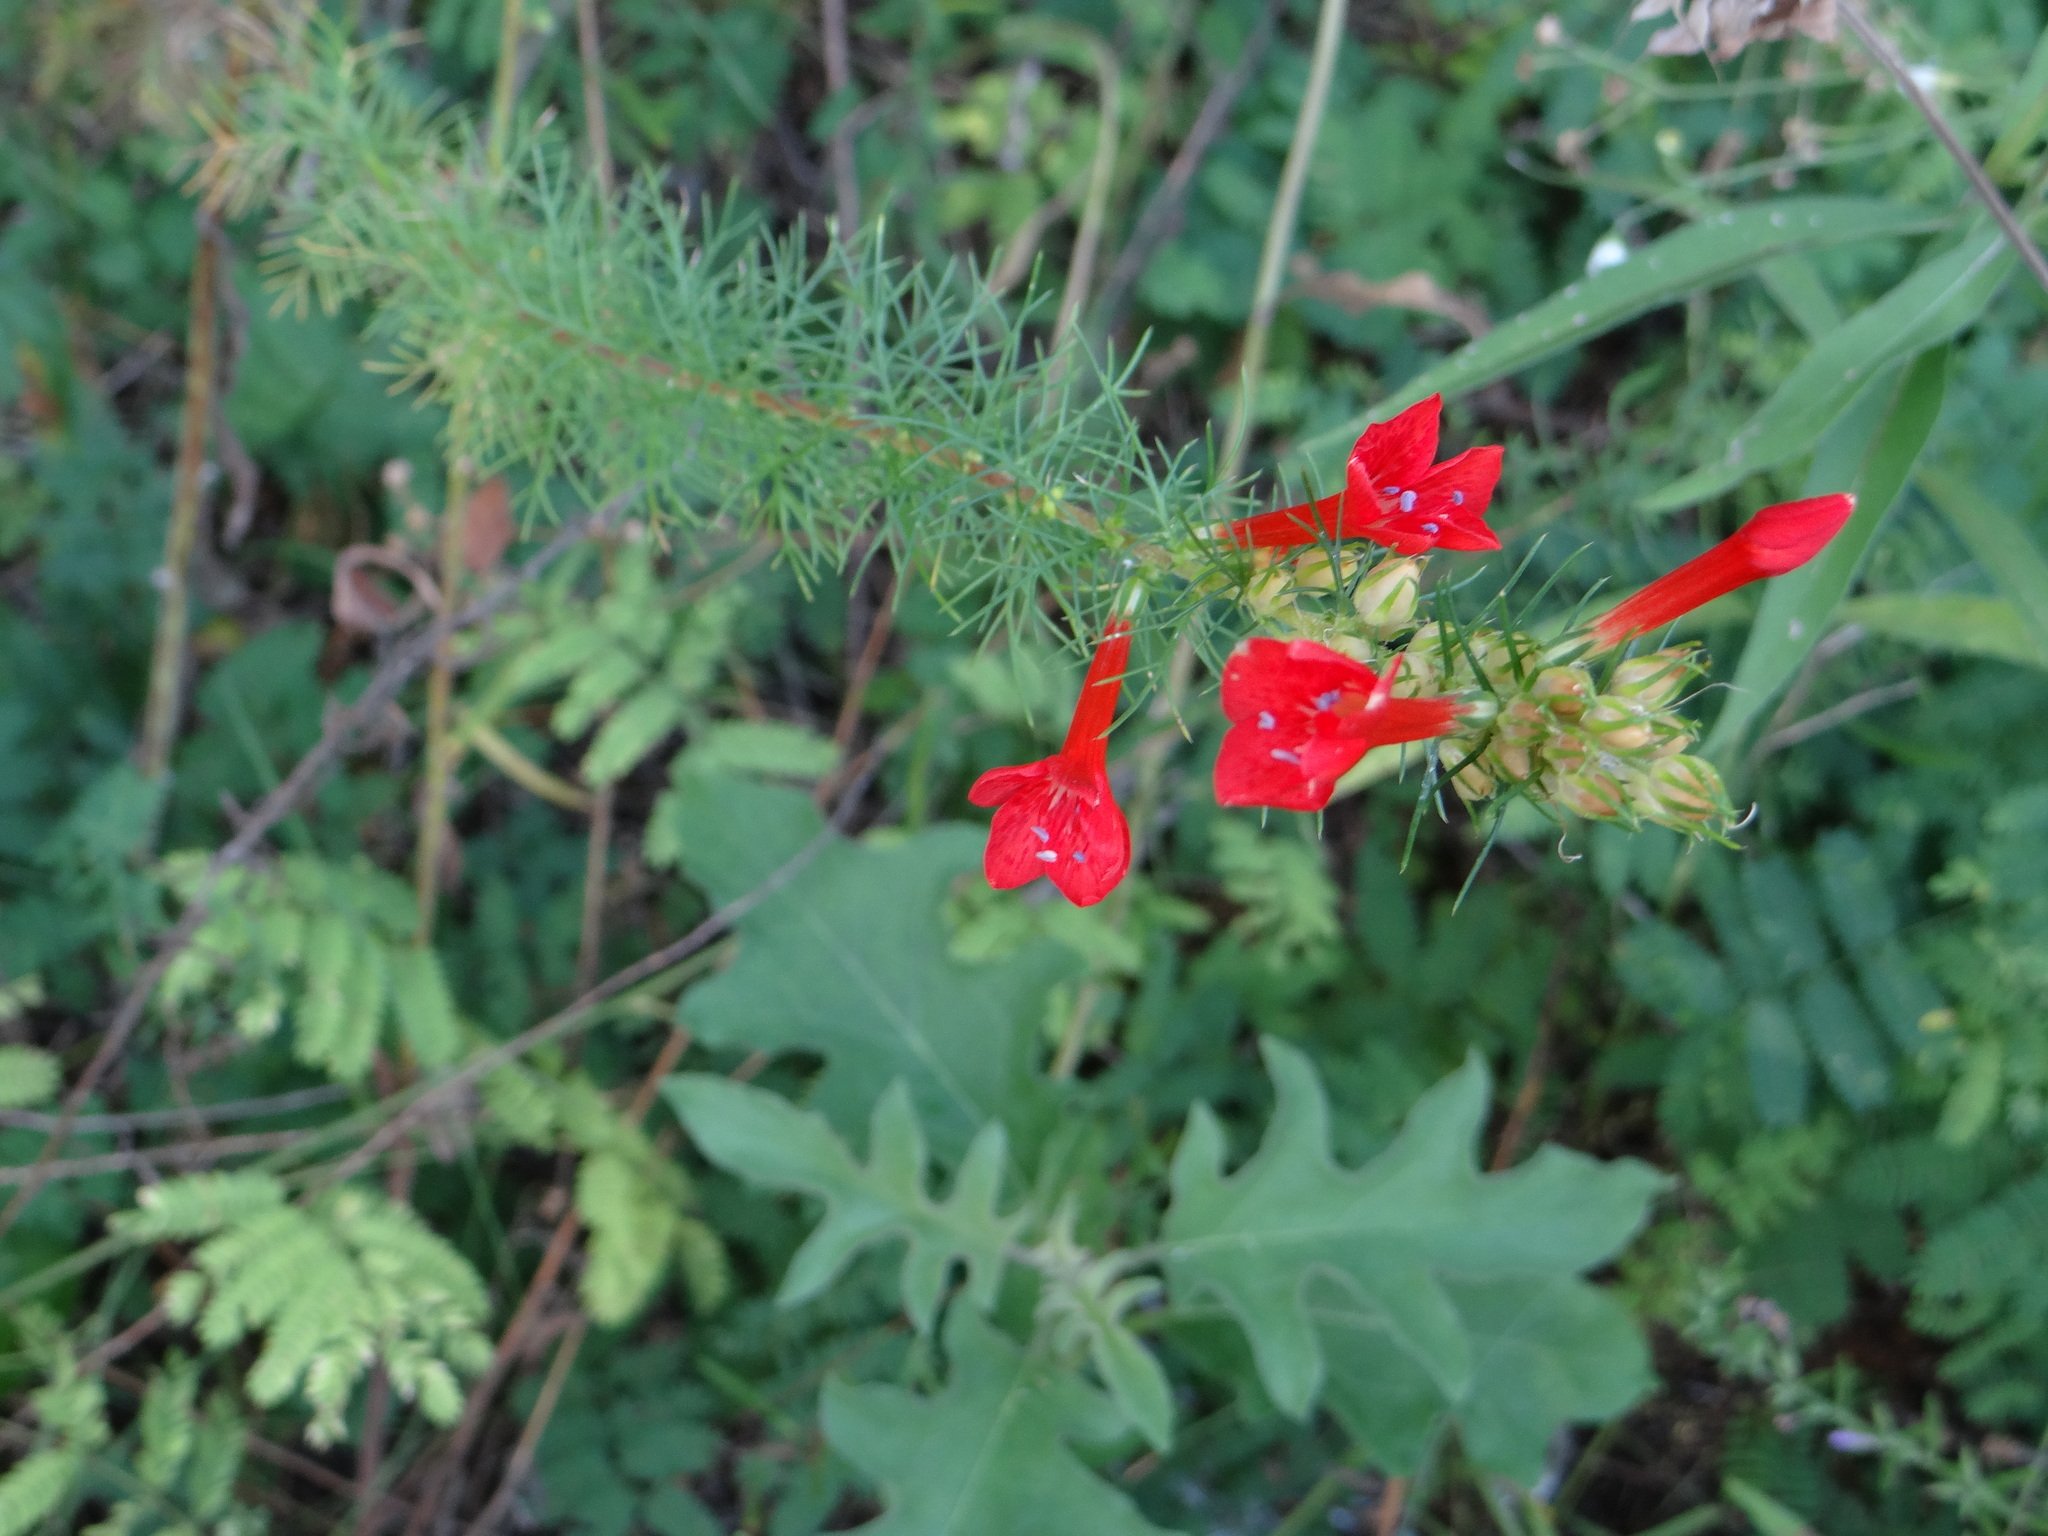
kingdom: Plantae
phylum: Tracheophyta
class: Magnoliopsida
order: Ericales
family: Polemoniaceae
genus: Ipomopsis
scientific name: Ipomopsis rubra
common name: Skyrocket
